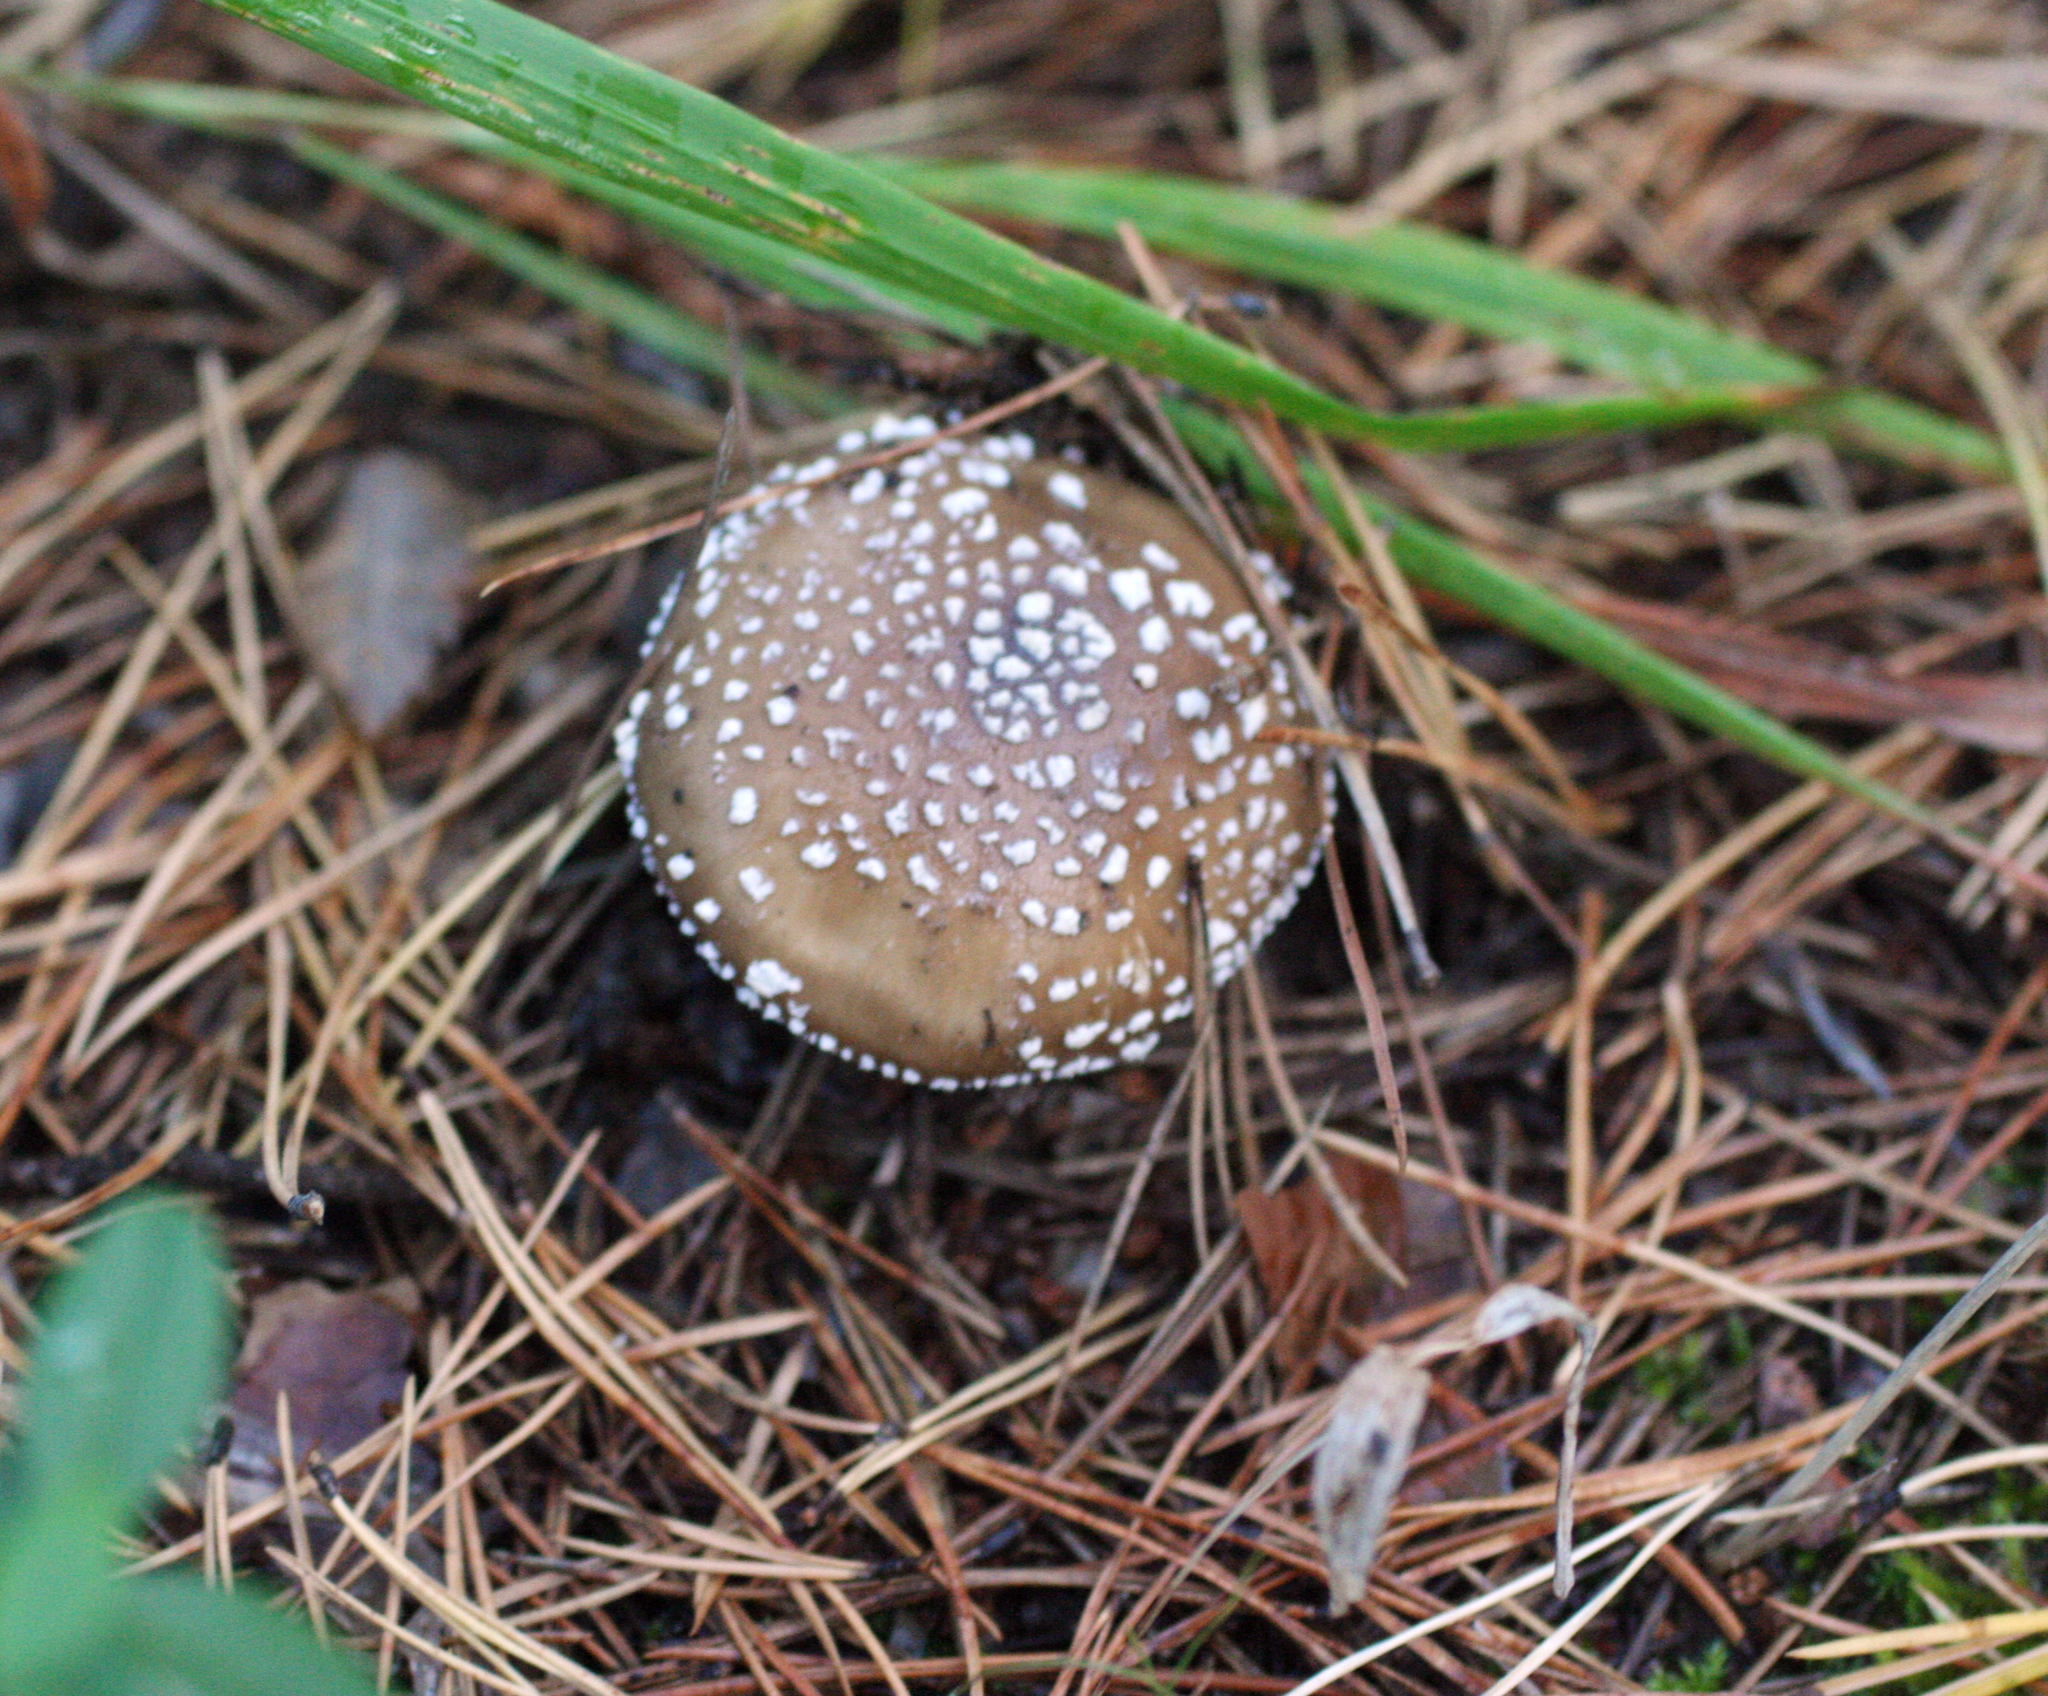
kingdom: Fungi
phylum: Basidiomycota
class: Agaricomycetes
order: Agaricales
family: Amanitaceae
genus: Amanita
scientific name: Amanita pantherina
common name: Panthercap
